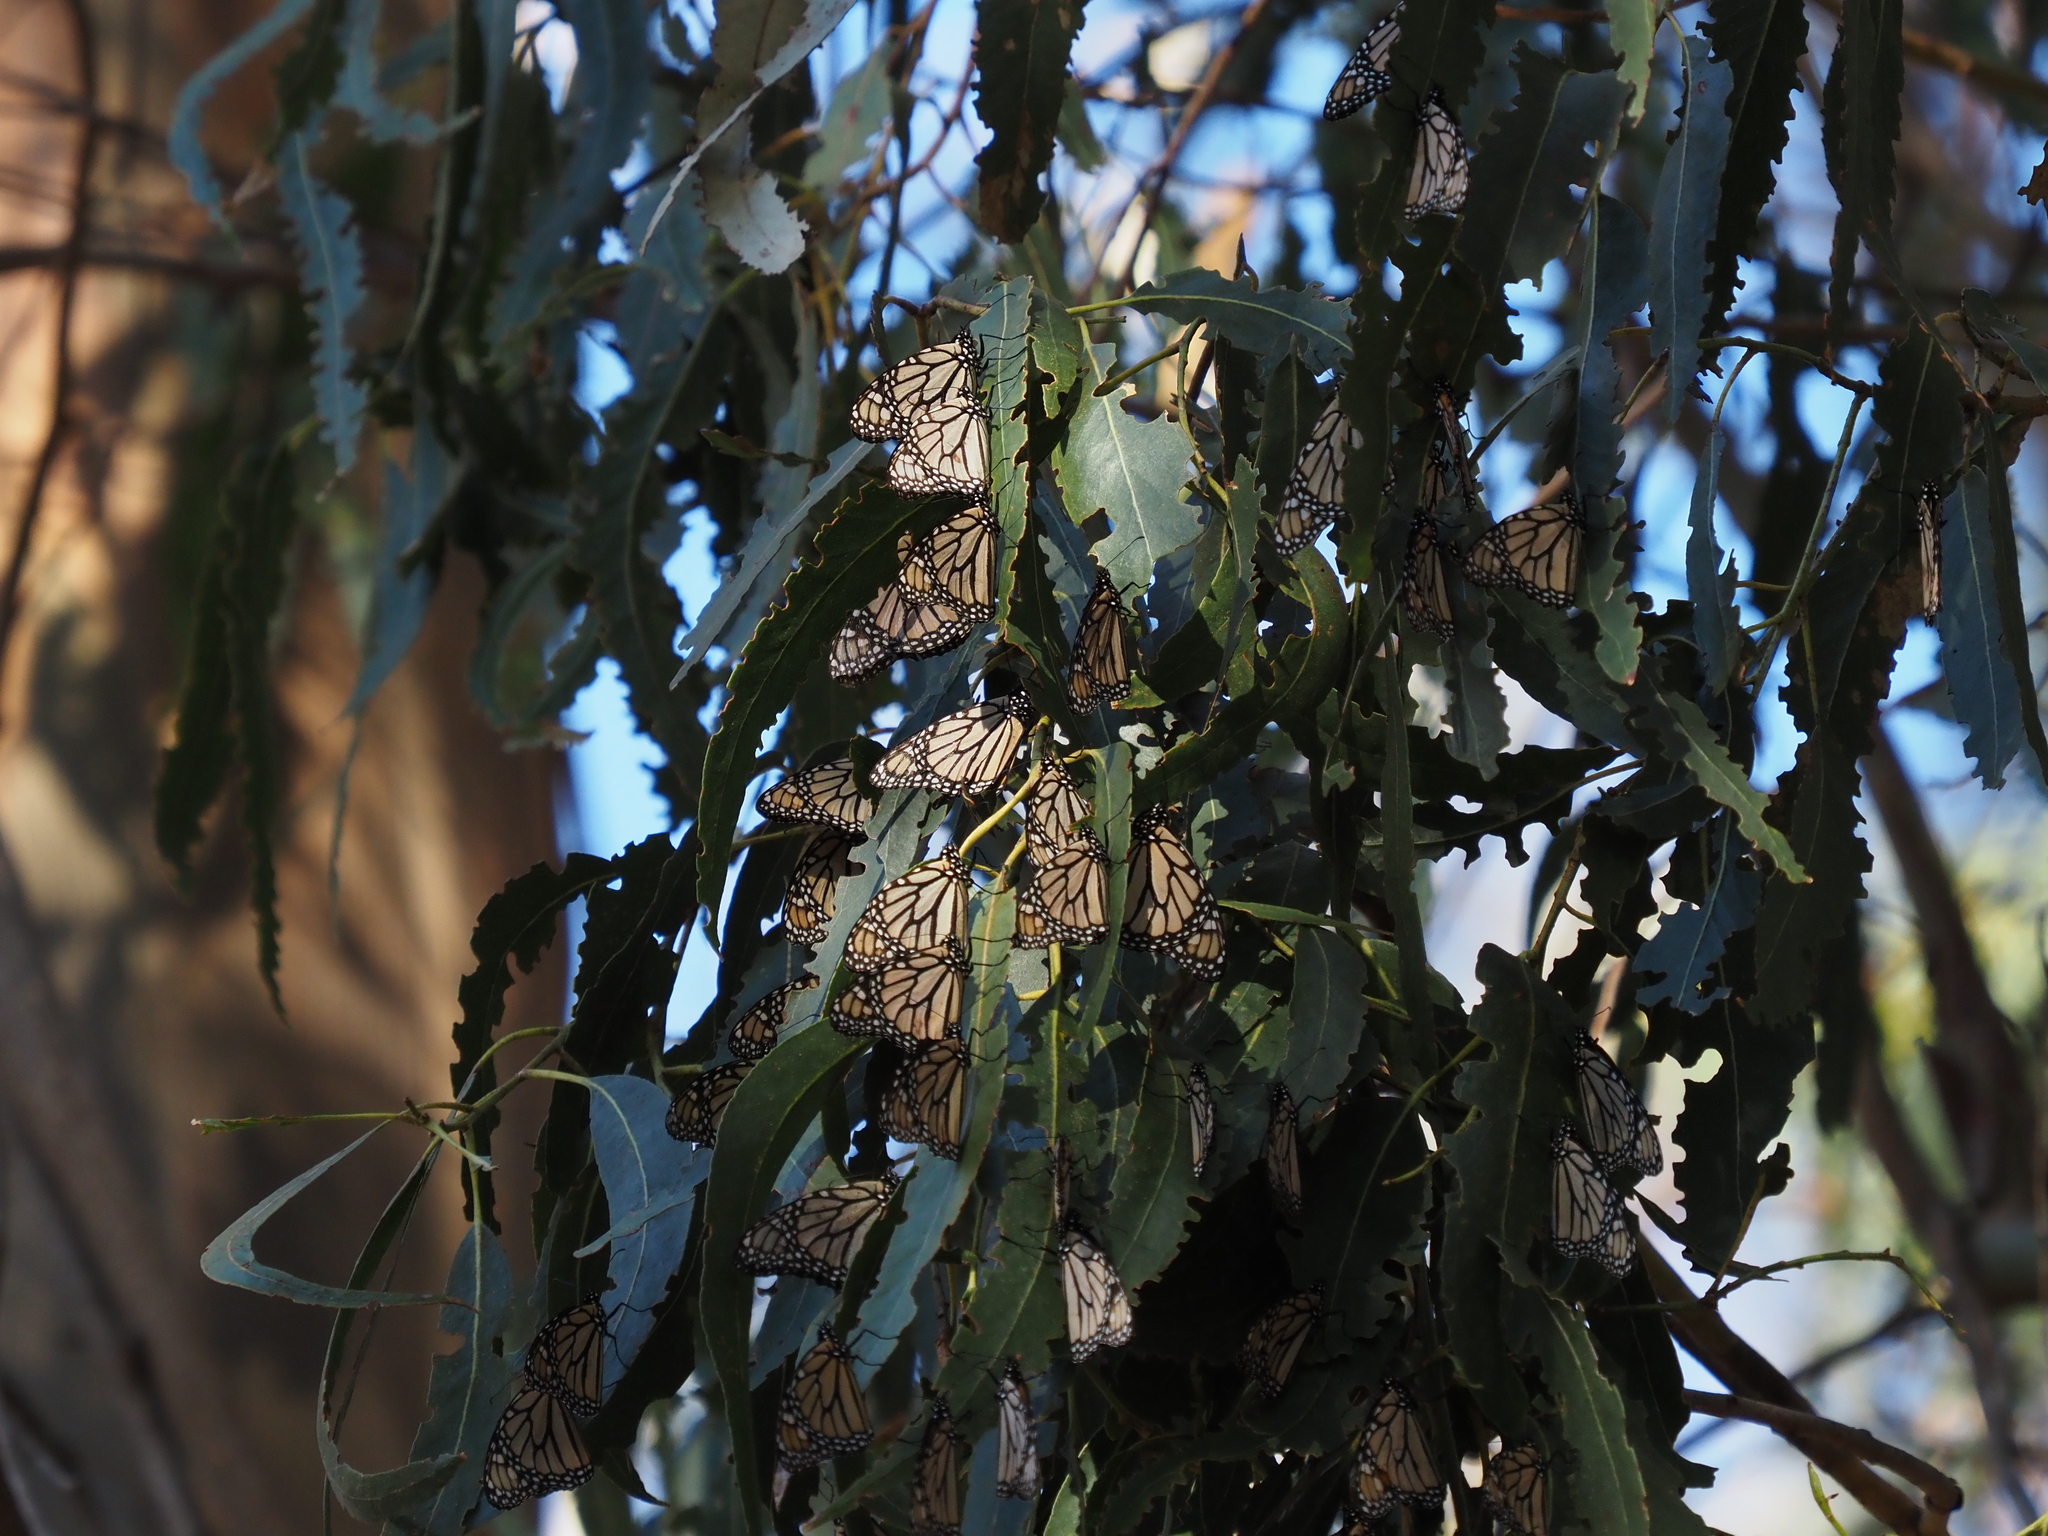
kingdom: Animalia
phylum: Arthropoda
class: Insecta
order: Lepidoptera
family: Nymphalidae
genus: Danaus
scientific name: Danaus plexippus
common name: Monarch
